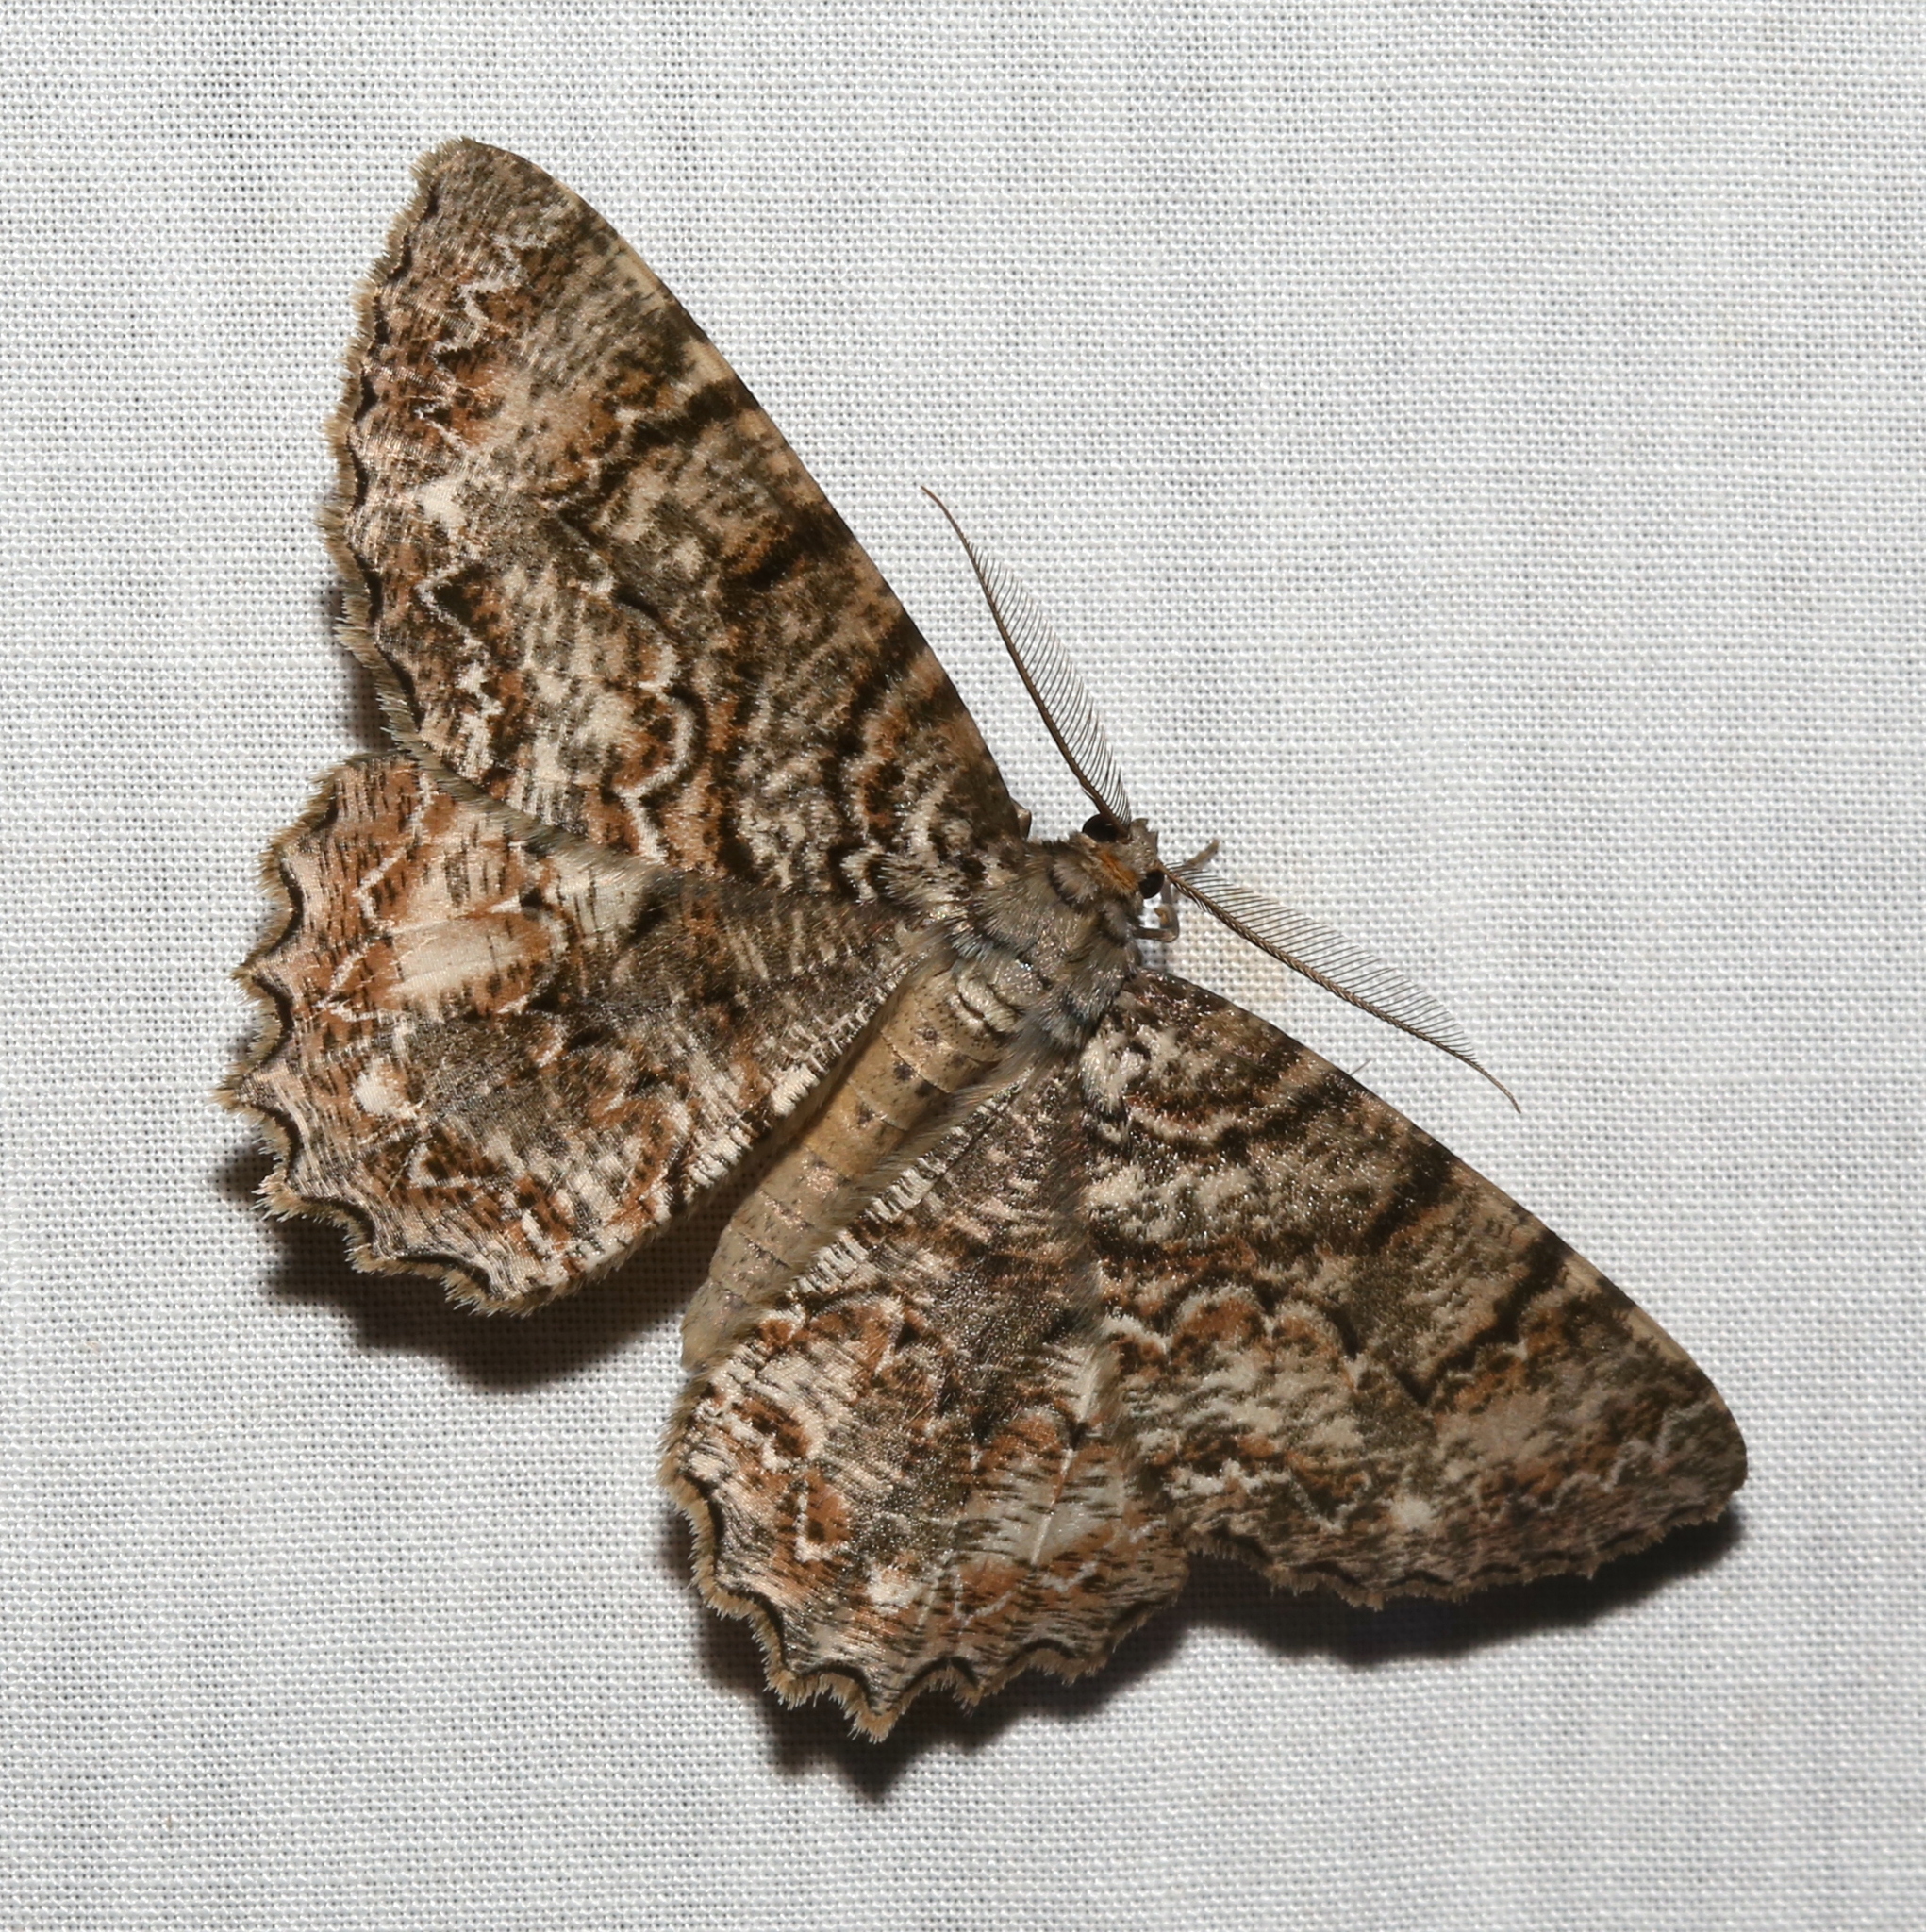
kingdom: Animalia
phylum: Arthropoda
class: Insecta
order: Lepidoptera
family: Geometridae
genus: Epimecis
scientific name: Epimecis hortaria
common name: Tulip-tree beauty
